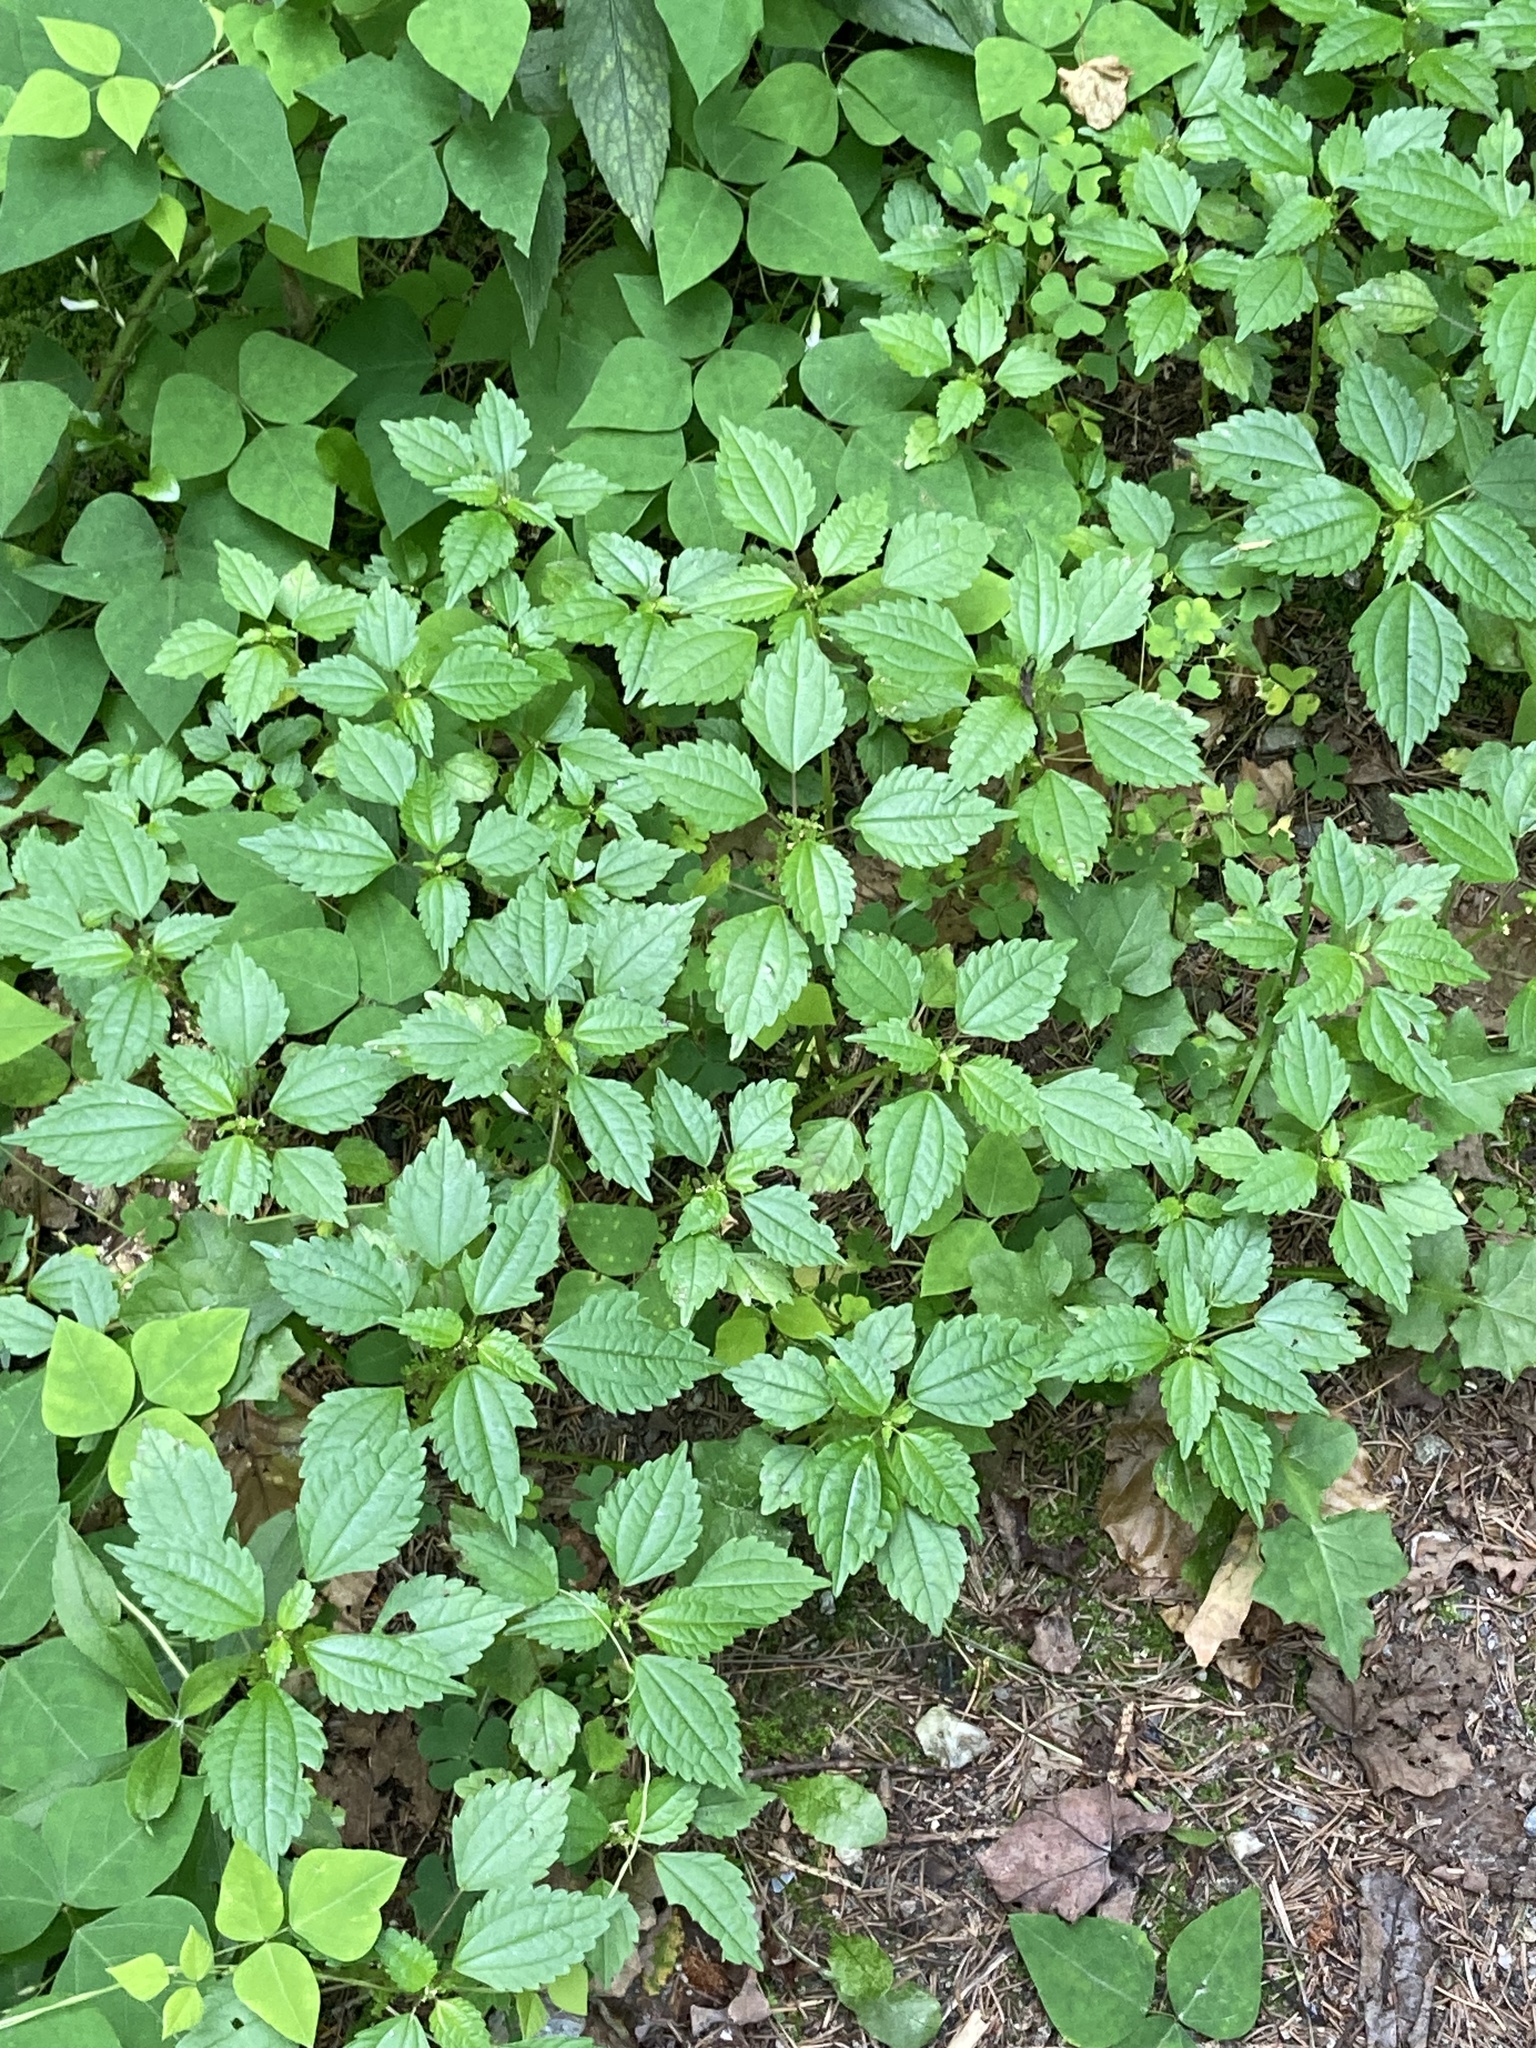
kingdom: Plantae
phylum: Tracheophyta
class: Magnoliopsida
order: Rosales
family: Urticaceae
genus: Pilea
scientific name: Pilea pumila
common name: Clearweed
